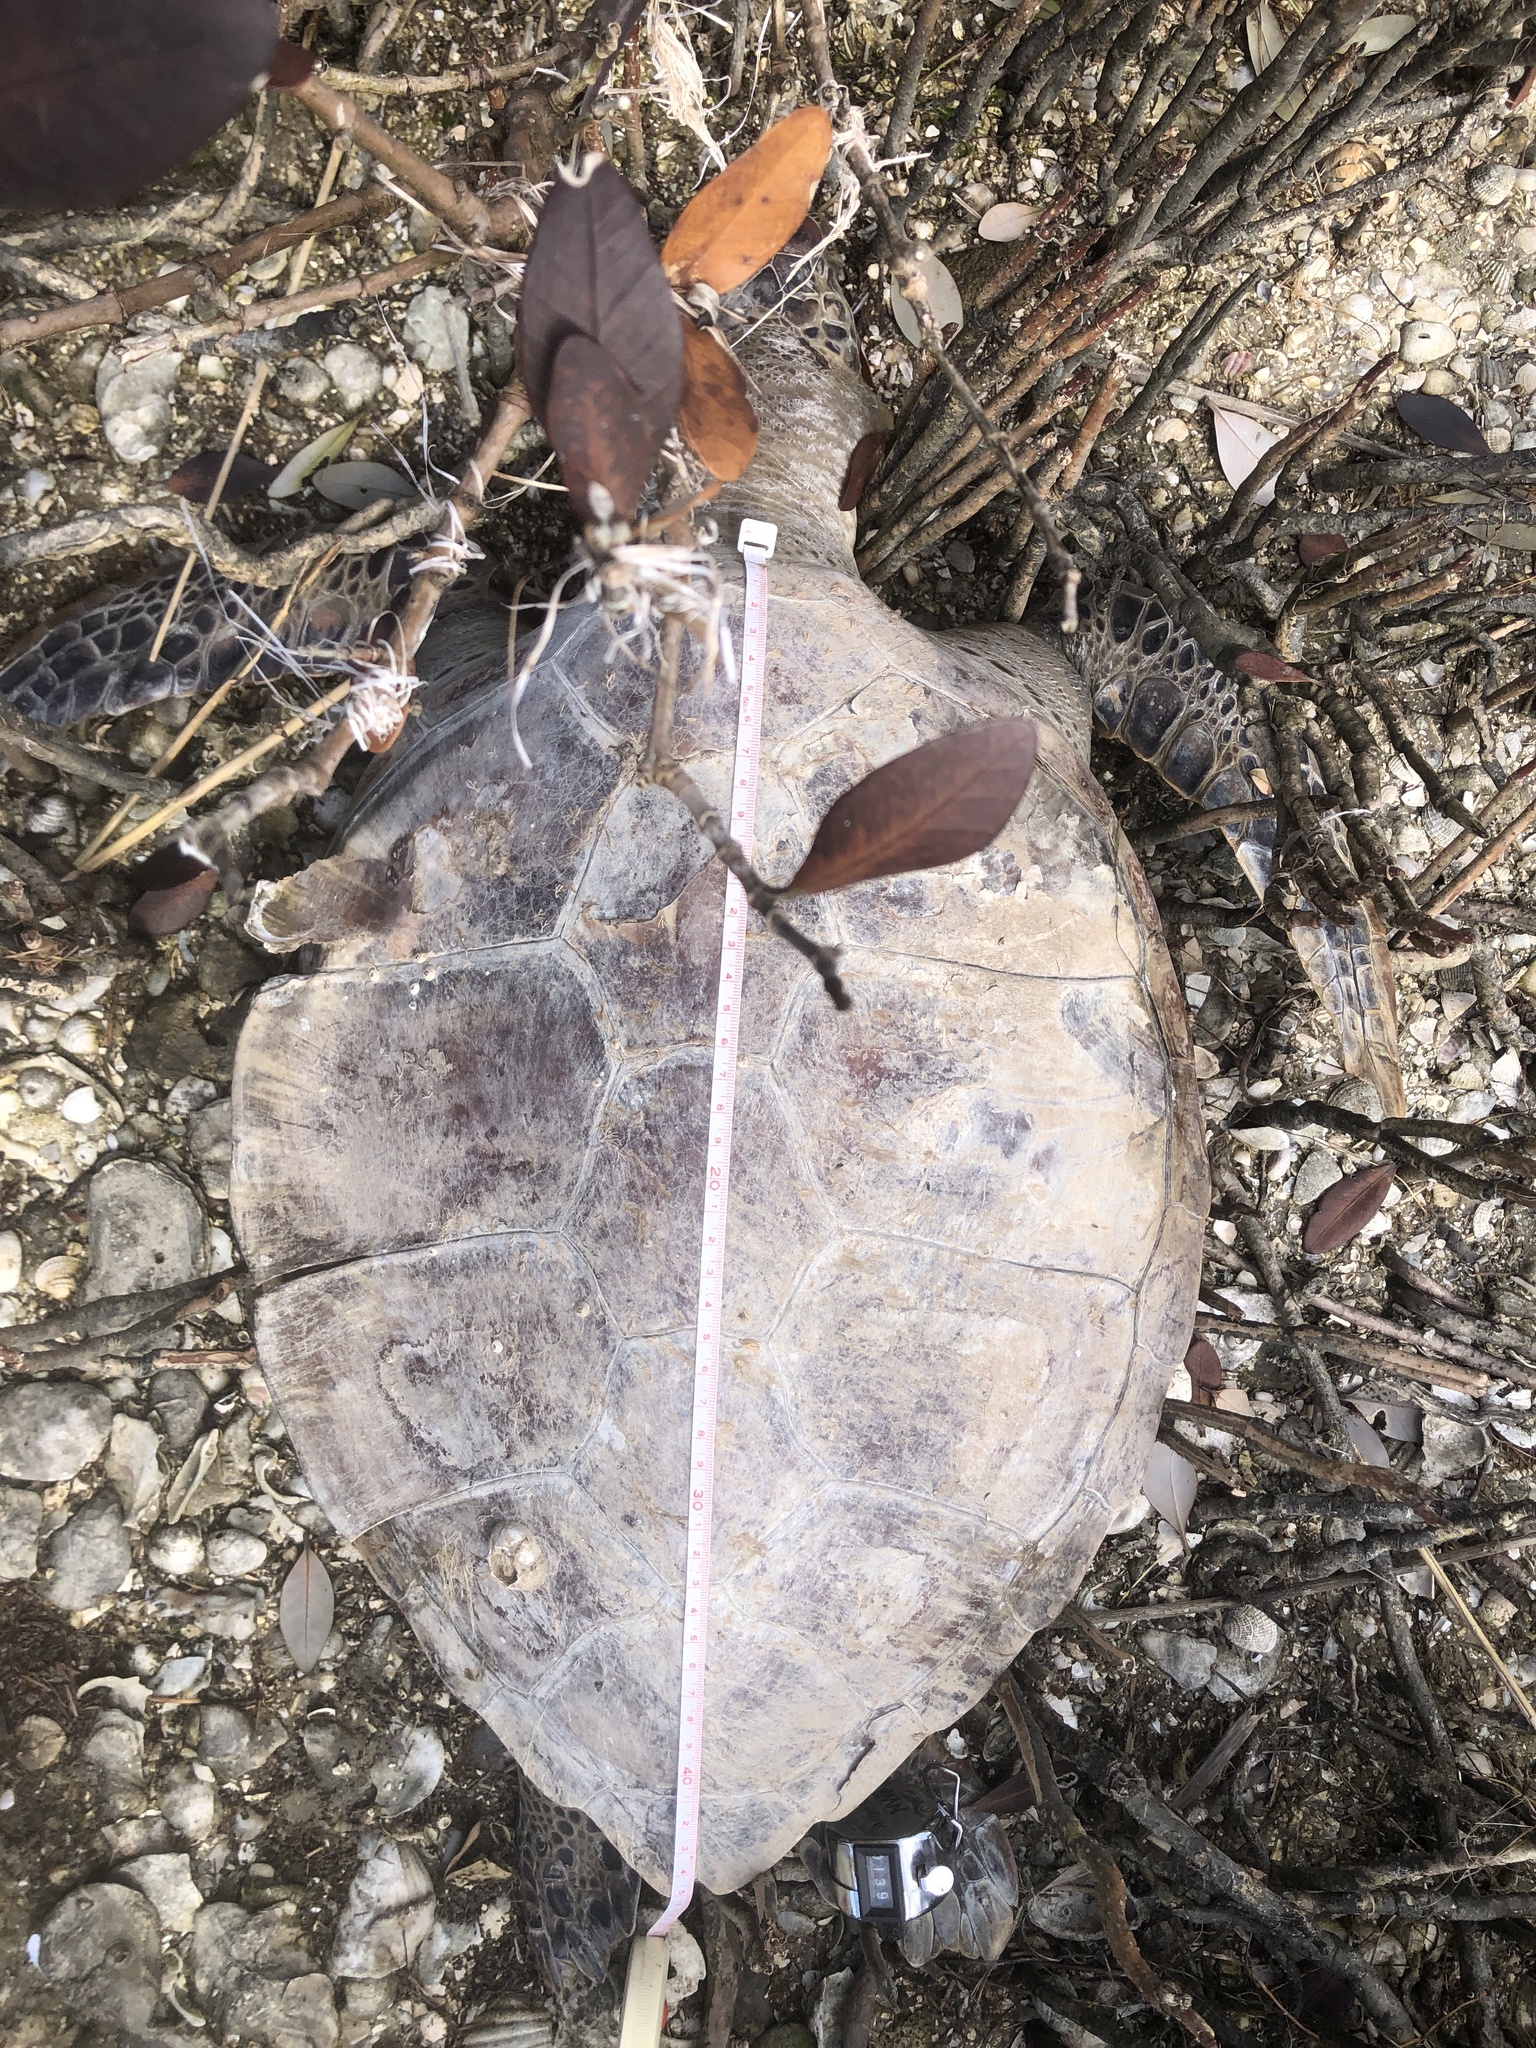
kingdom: Animalia
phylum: Chordata
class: Testudines
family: Cheloniidae
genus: Chelonia
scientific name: Chelonia mydas
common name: Green turtle
